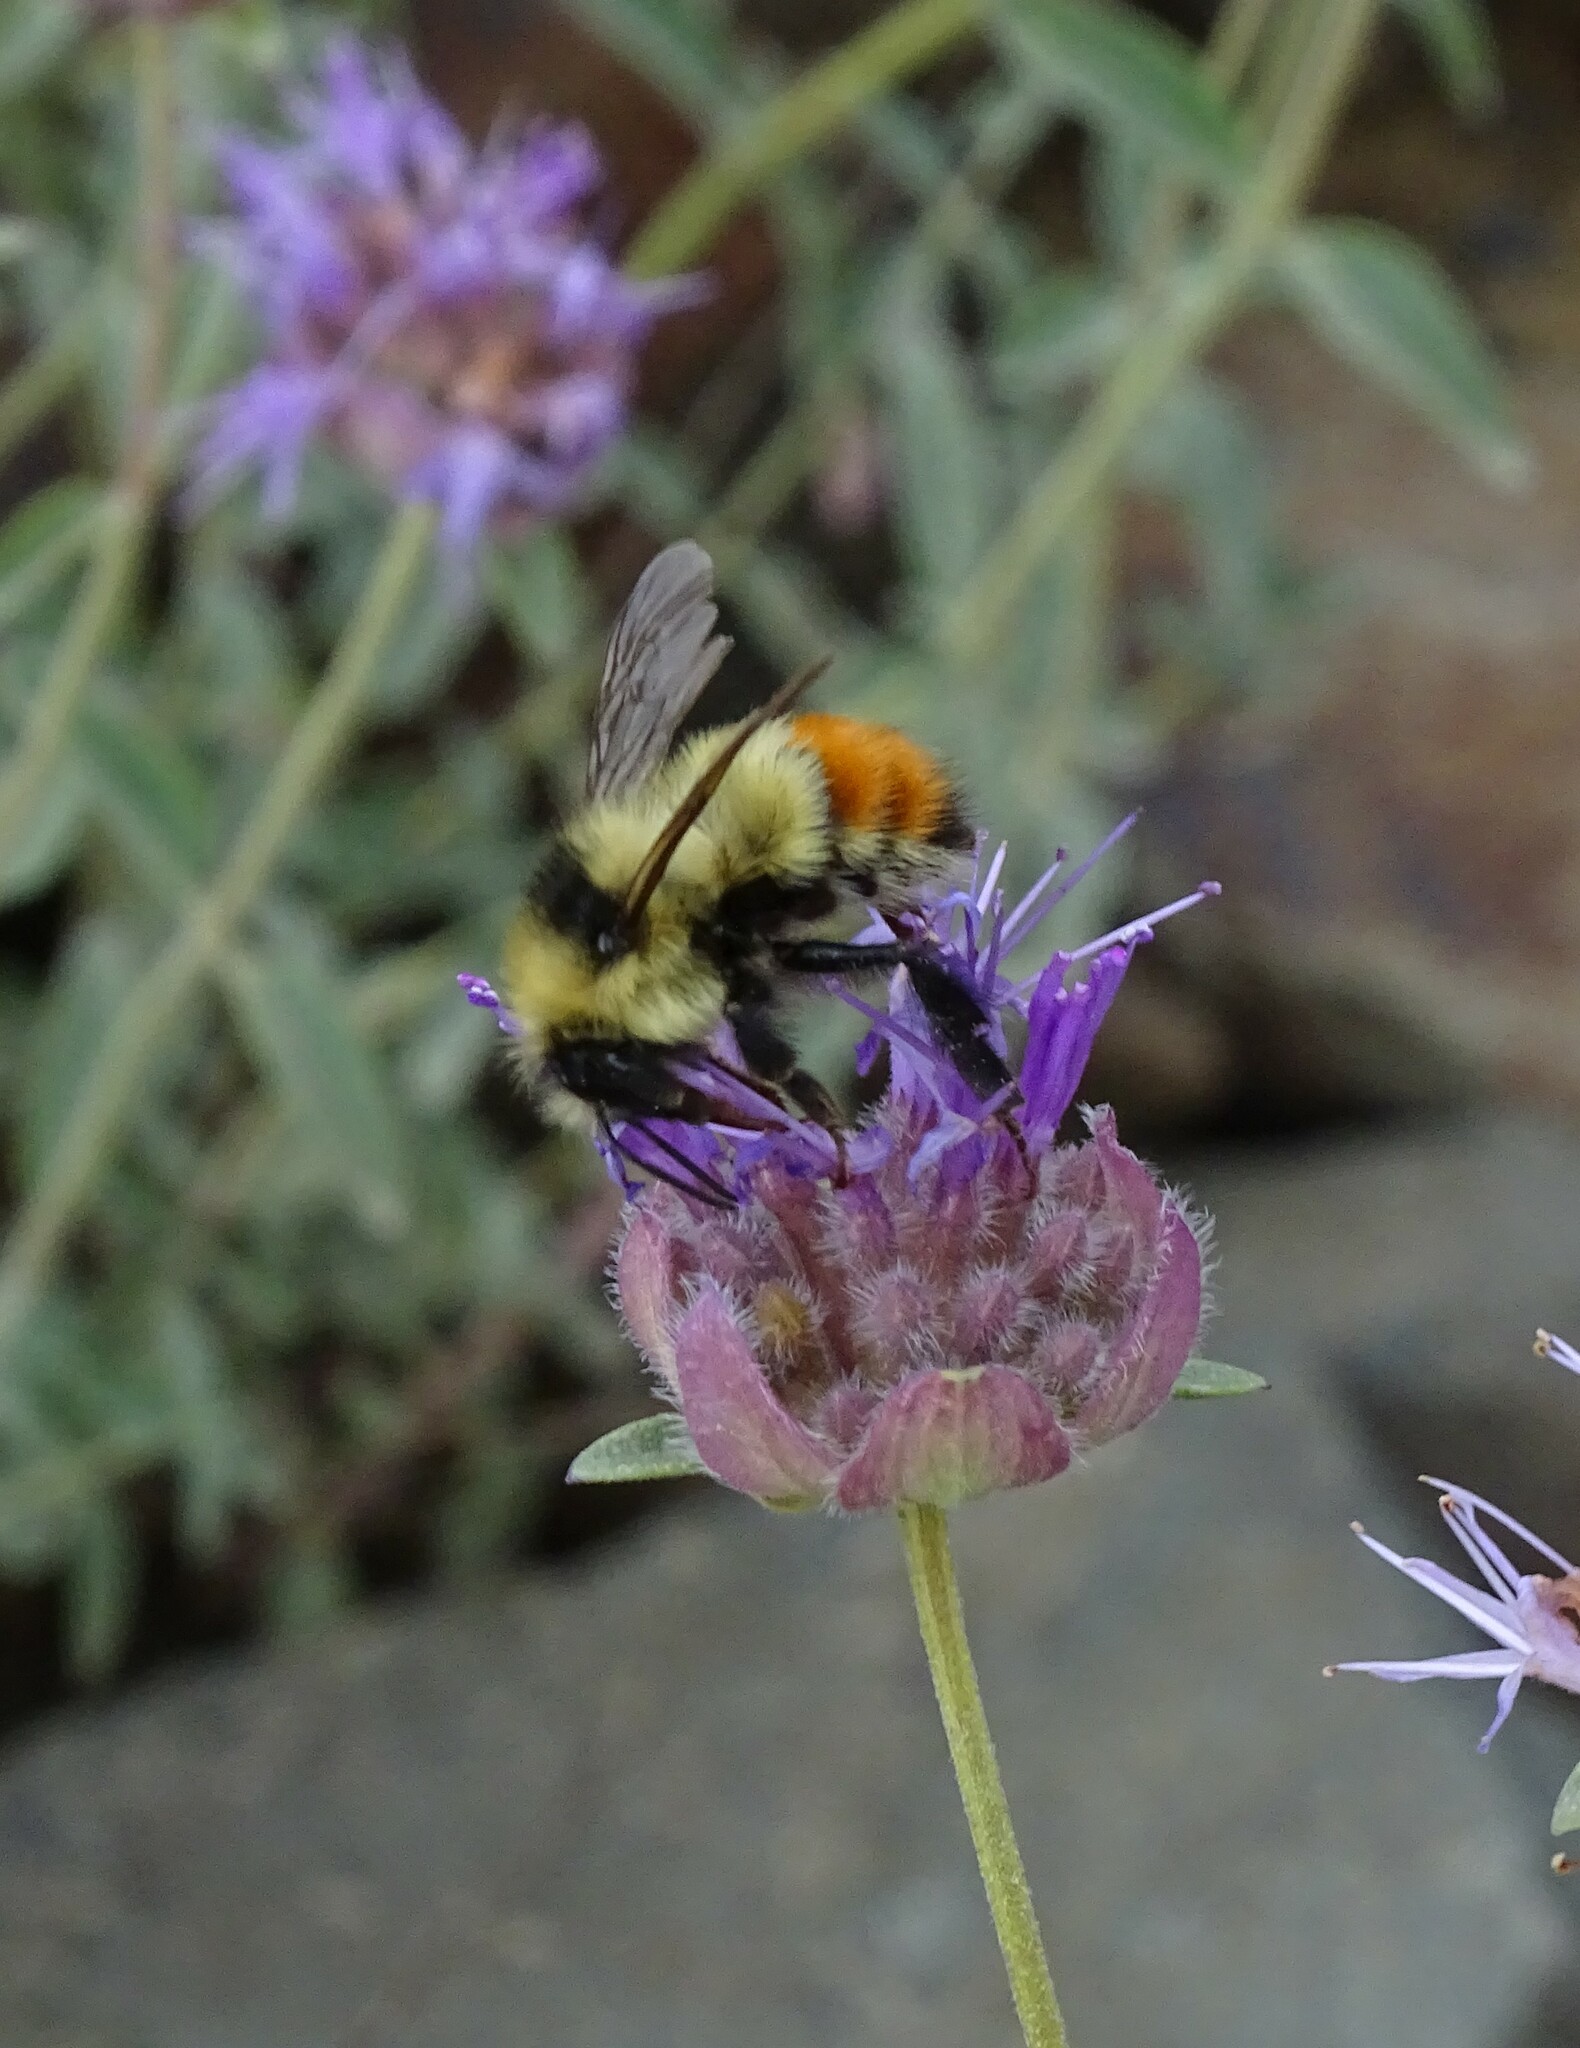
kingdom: Animalia
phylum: Arthropoda
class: Insecta
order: Hymenoptera
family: Apidae
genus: Bombus
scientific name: Bombus centralis
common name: Central bumble bee
